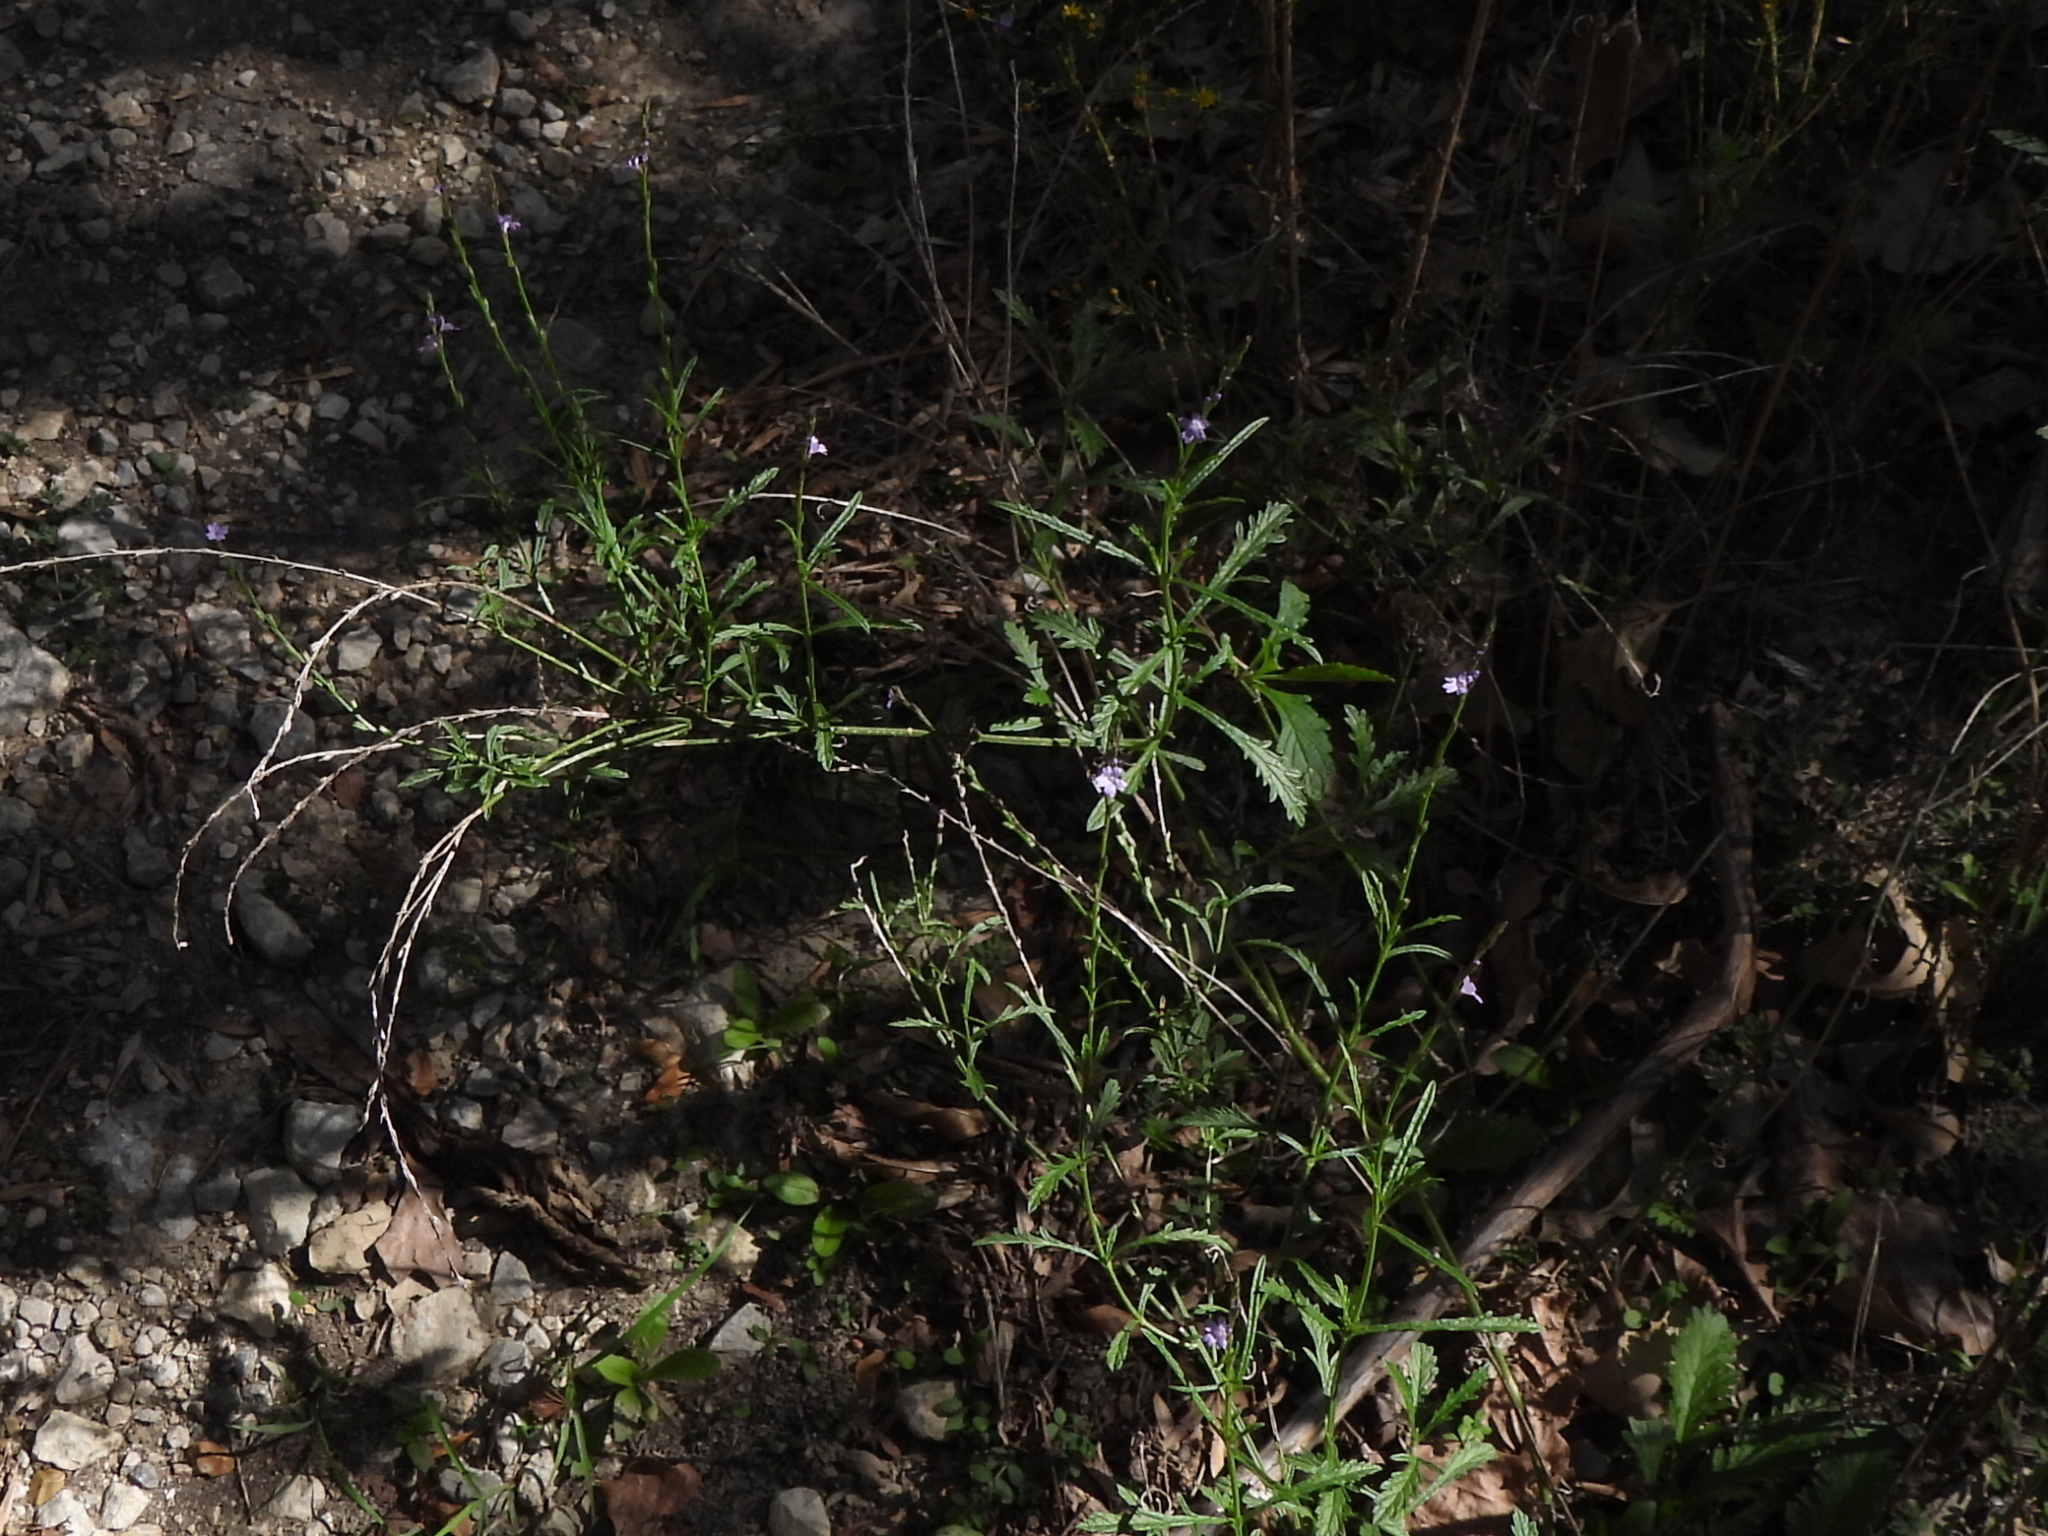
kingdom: Plantae
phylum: Tracheophyta
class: Magnoliopsida
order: Lamiales
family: Verbenaceae
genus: Verbena
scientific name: Verbena halei
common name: Texas vervain
